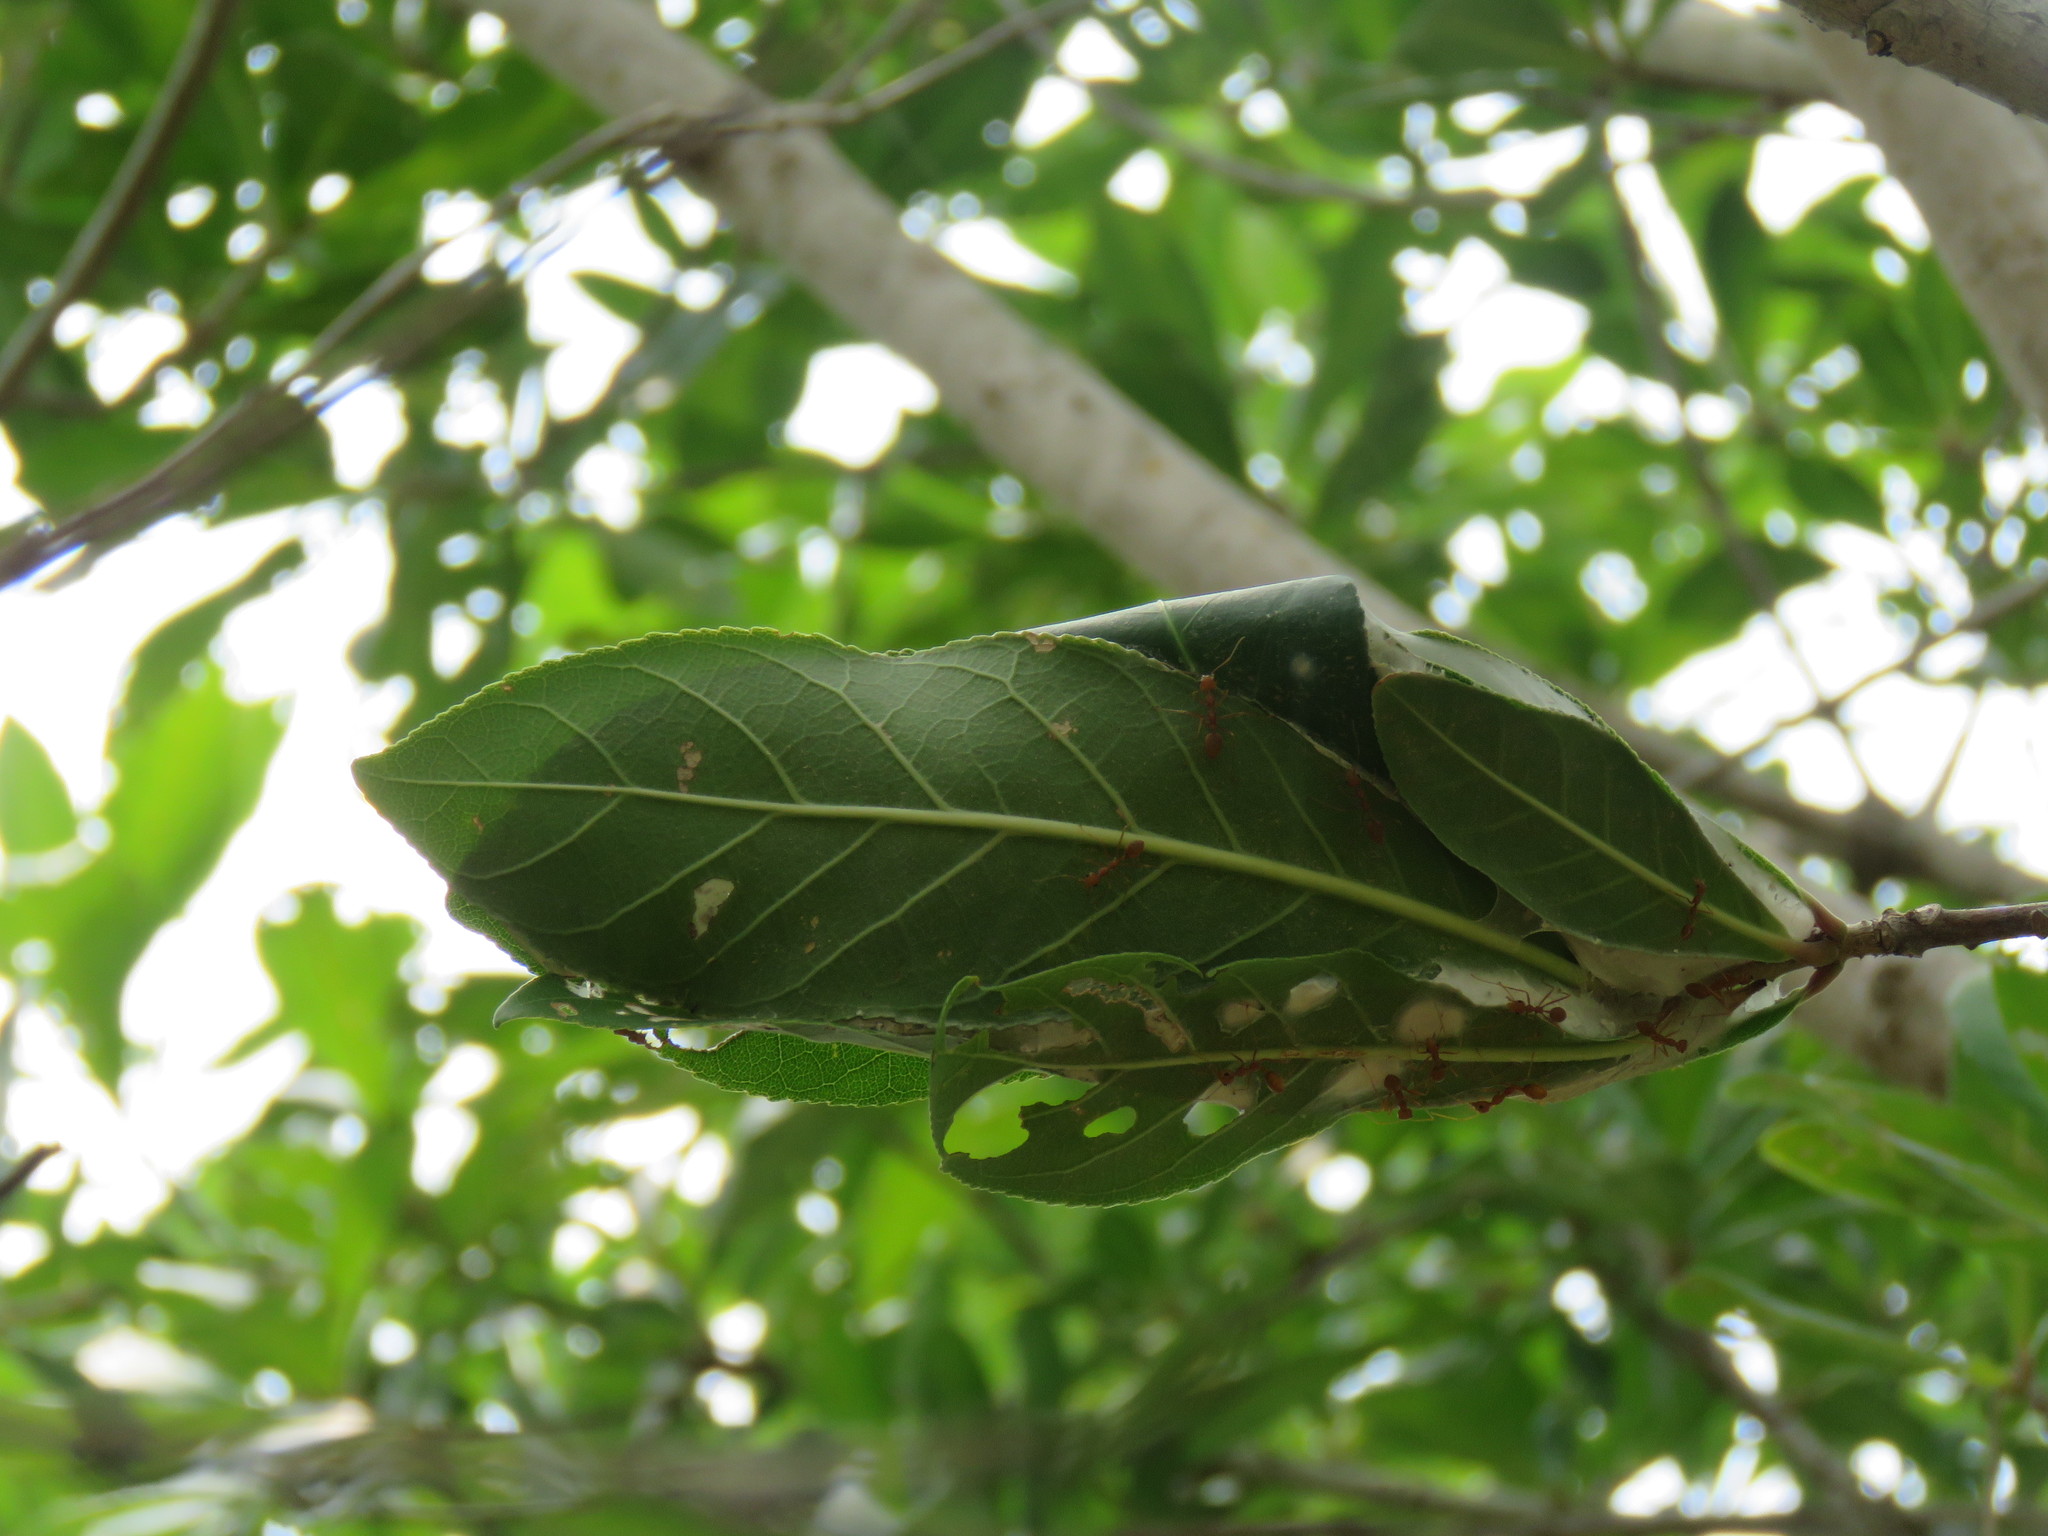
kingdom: Animalia
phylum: Arthropoda
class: Insecta
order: Hymenoptera
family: Formicidae
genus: Oecophylla
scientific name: Oecophylla smaragdina
